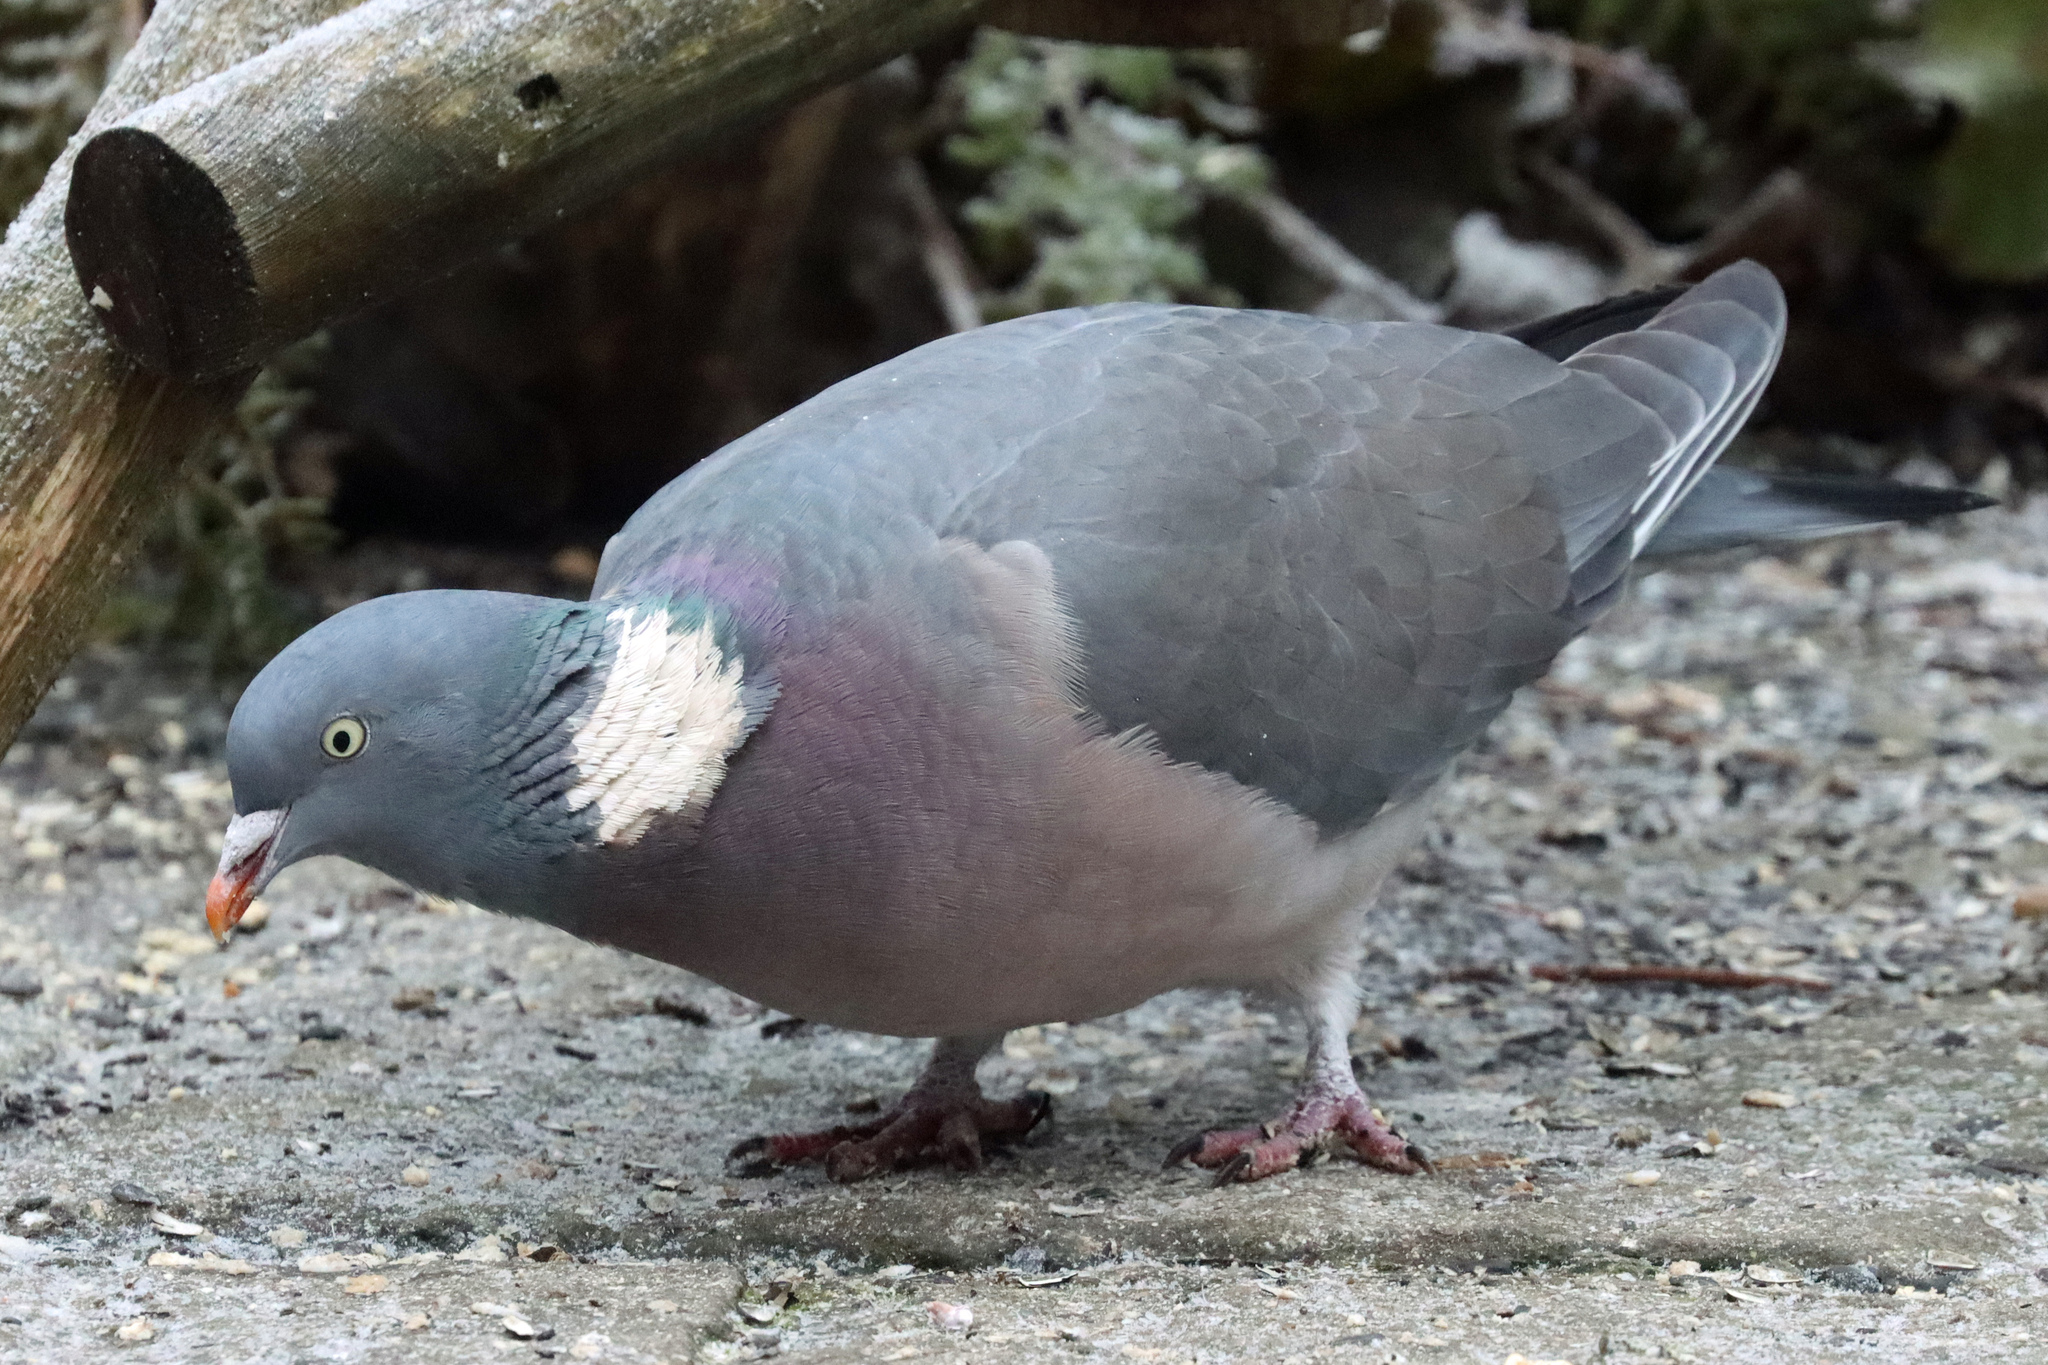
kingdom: Animalia
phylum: Chordata
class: Aves
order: Columbiformes
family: Columbidae
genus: Columba
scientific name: Columba palumbus
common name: Common wood pigeon
